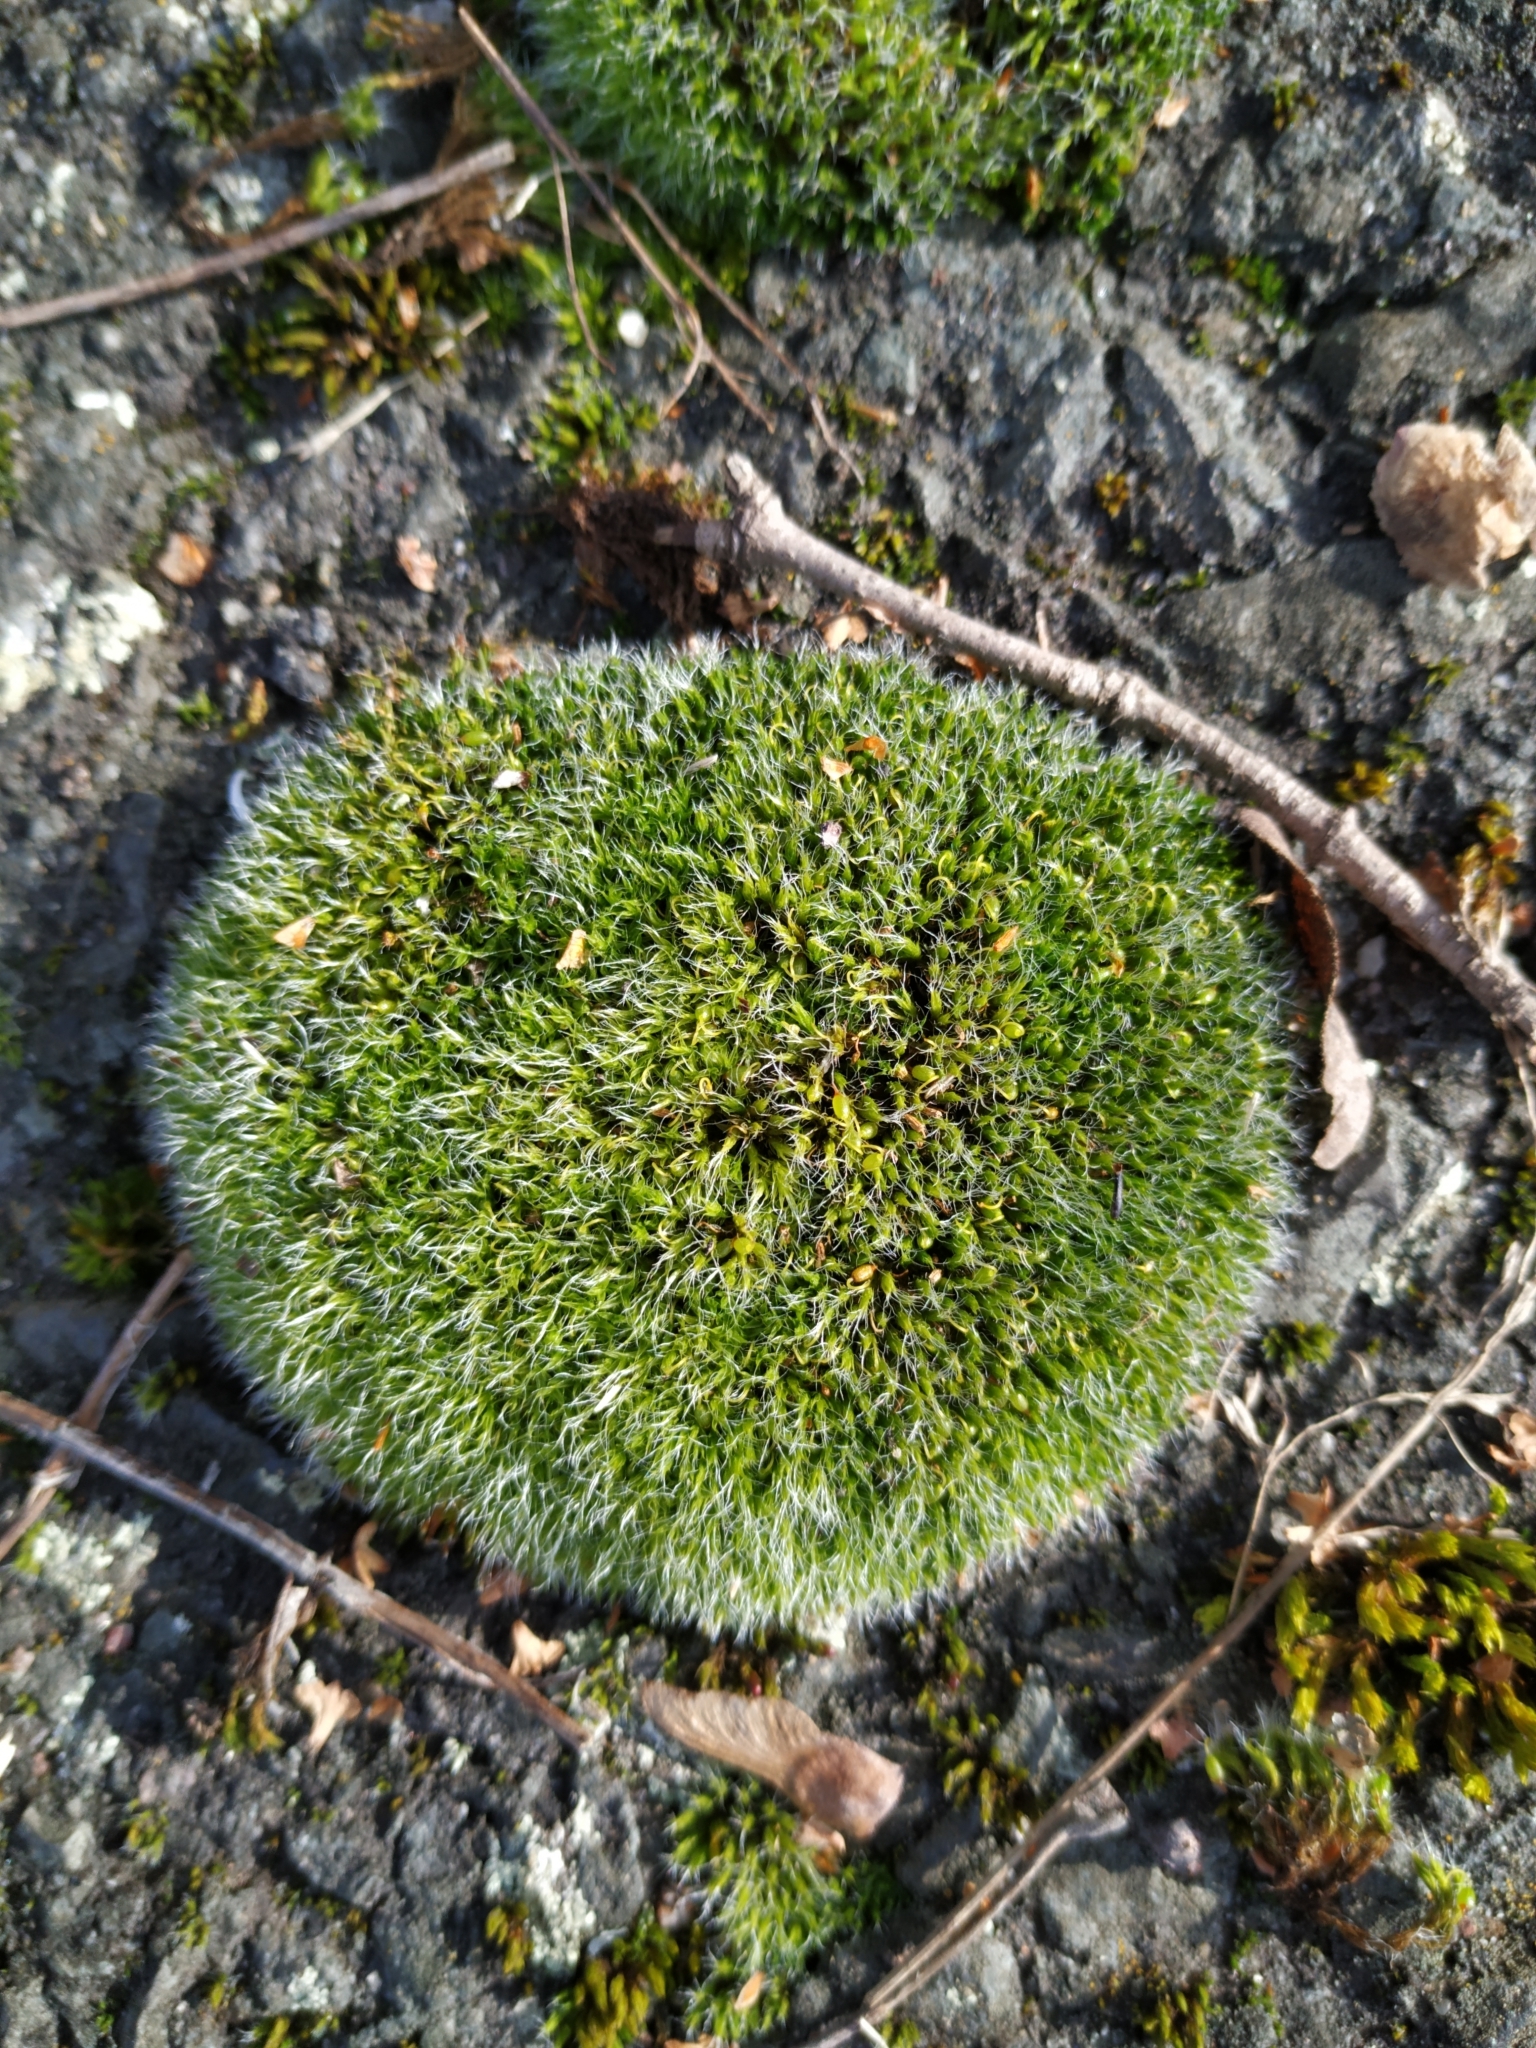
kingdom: Plantae
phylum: Bryophyta
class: Bryopsida
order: Grimmiales
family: Grimmiaceae
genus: Grimmia
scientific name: Grimmia pulvinata
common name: Grey-cushioned grimmia
